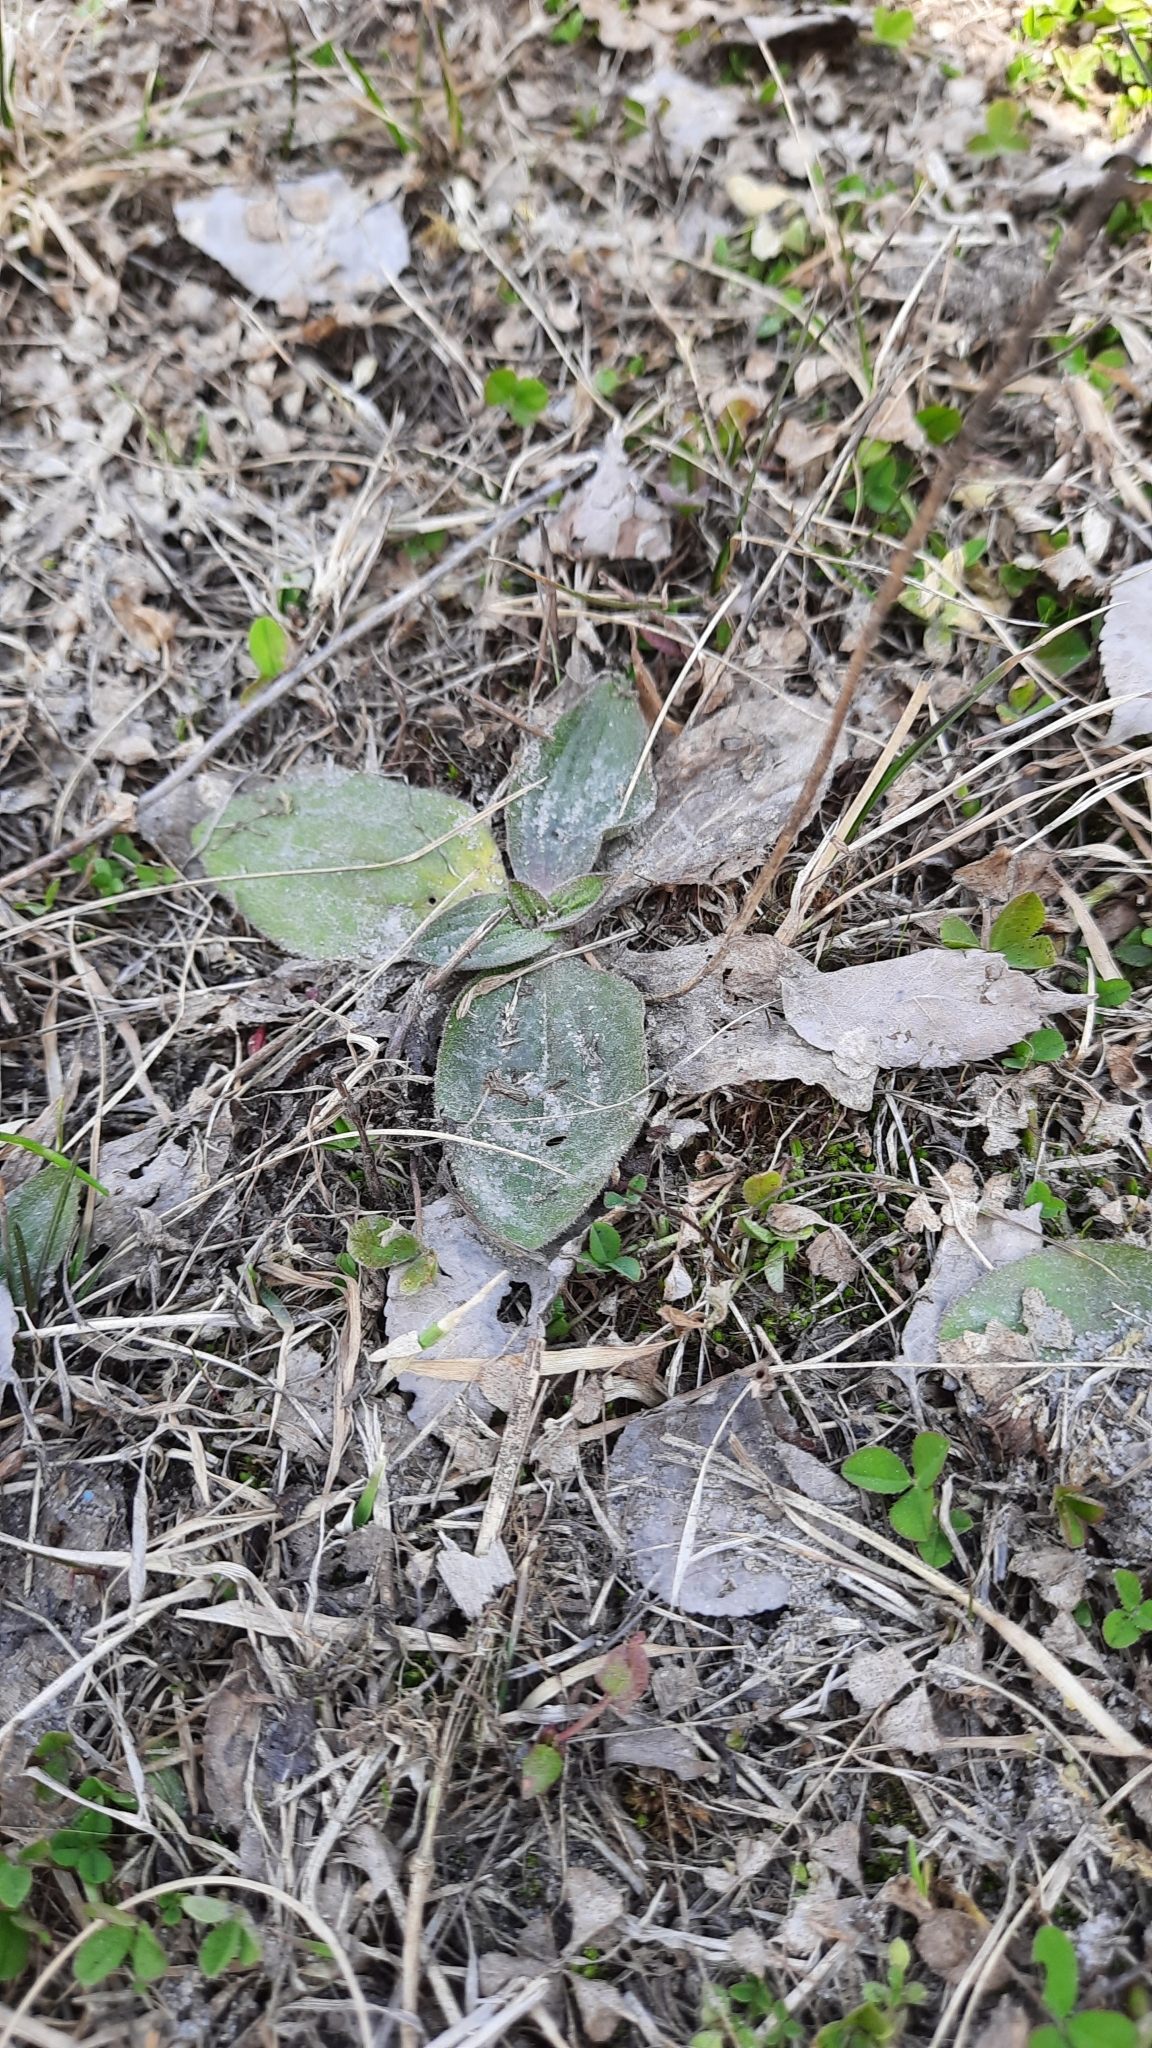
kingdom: Plantae
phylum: Tracheophyta
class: Magnoliopsida
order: Lamiales
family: Plantaginaceae
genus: Plantago
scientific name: Plantago media
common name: Hoary plantain
